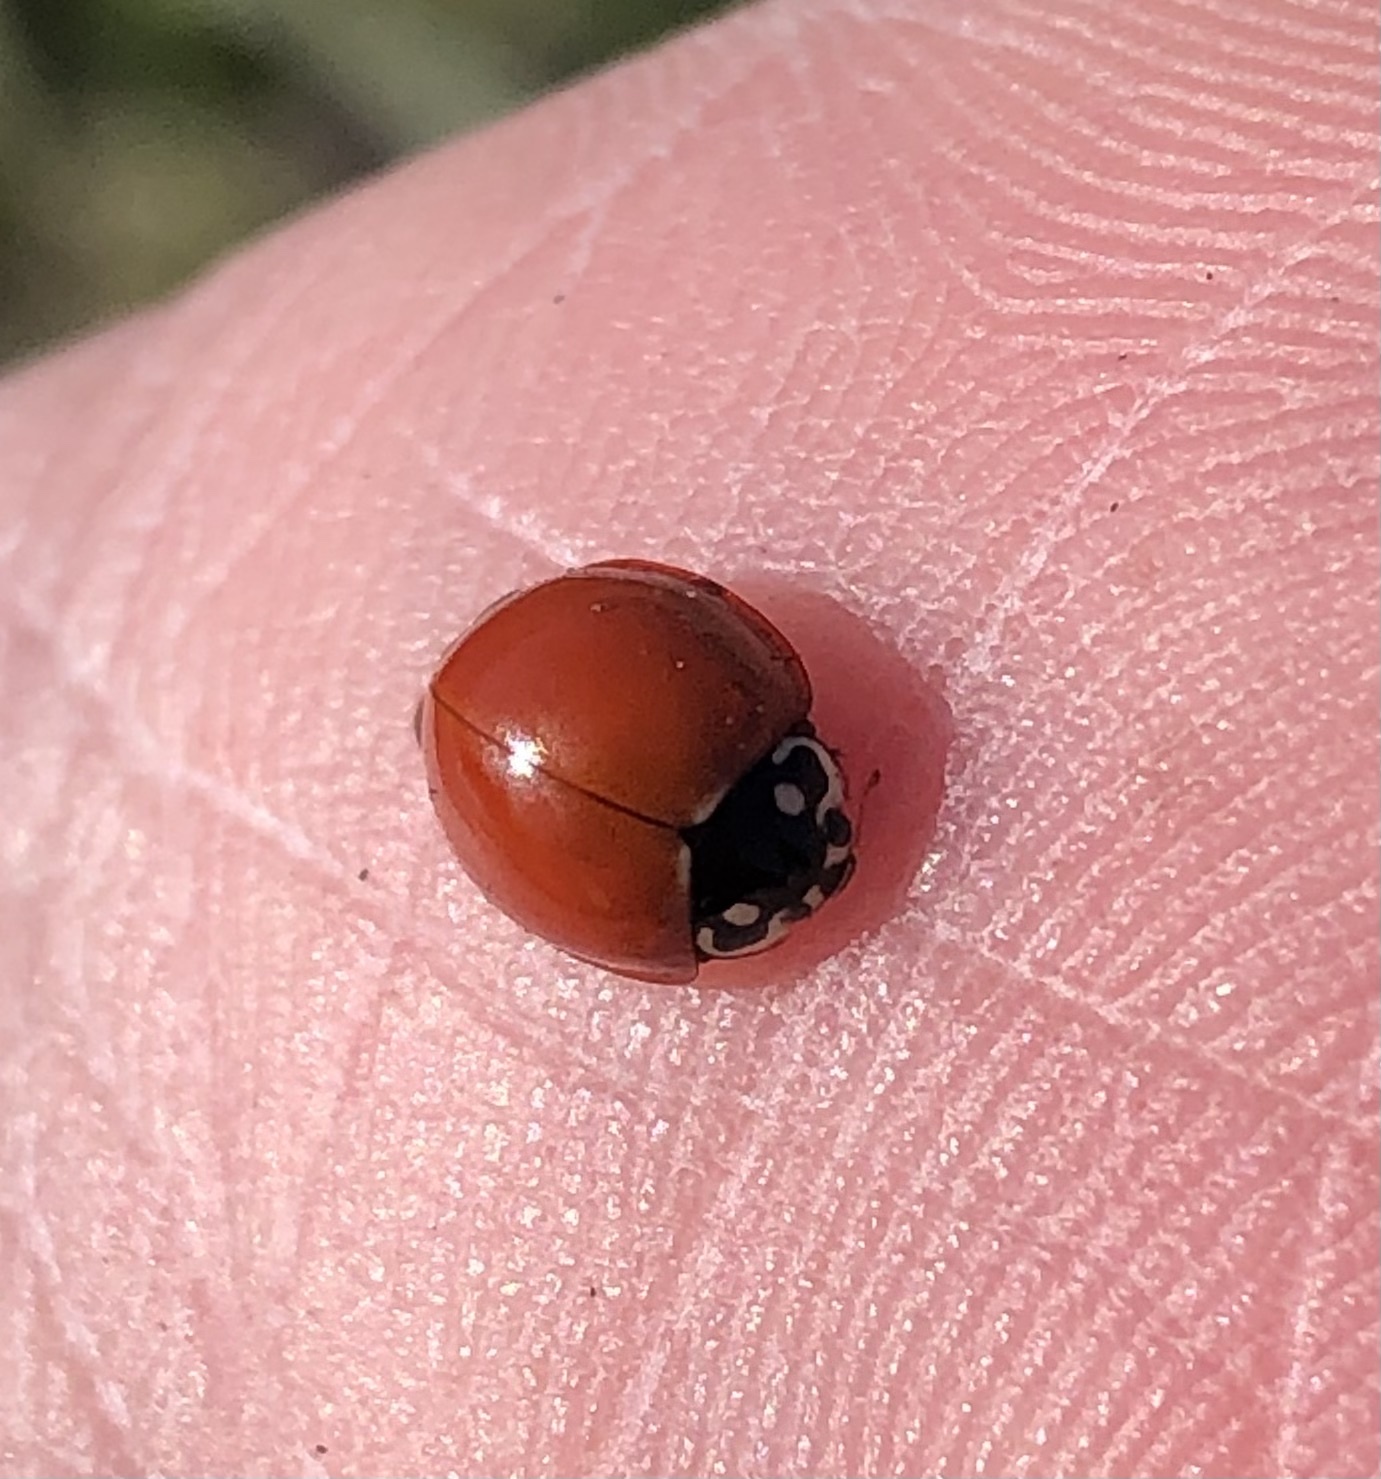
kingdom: Animalia
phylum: Arthropoda
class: Insecta
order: Coleoptera
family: Coccinellidae
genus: Cycloneda
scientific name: Cycloneda sanguinea
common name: Ladybird beetle
